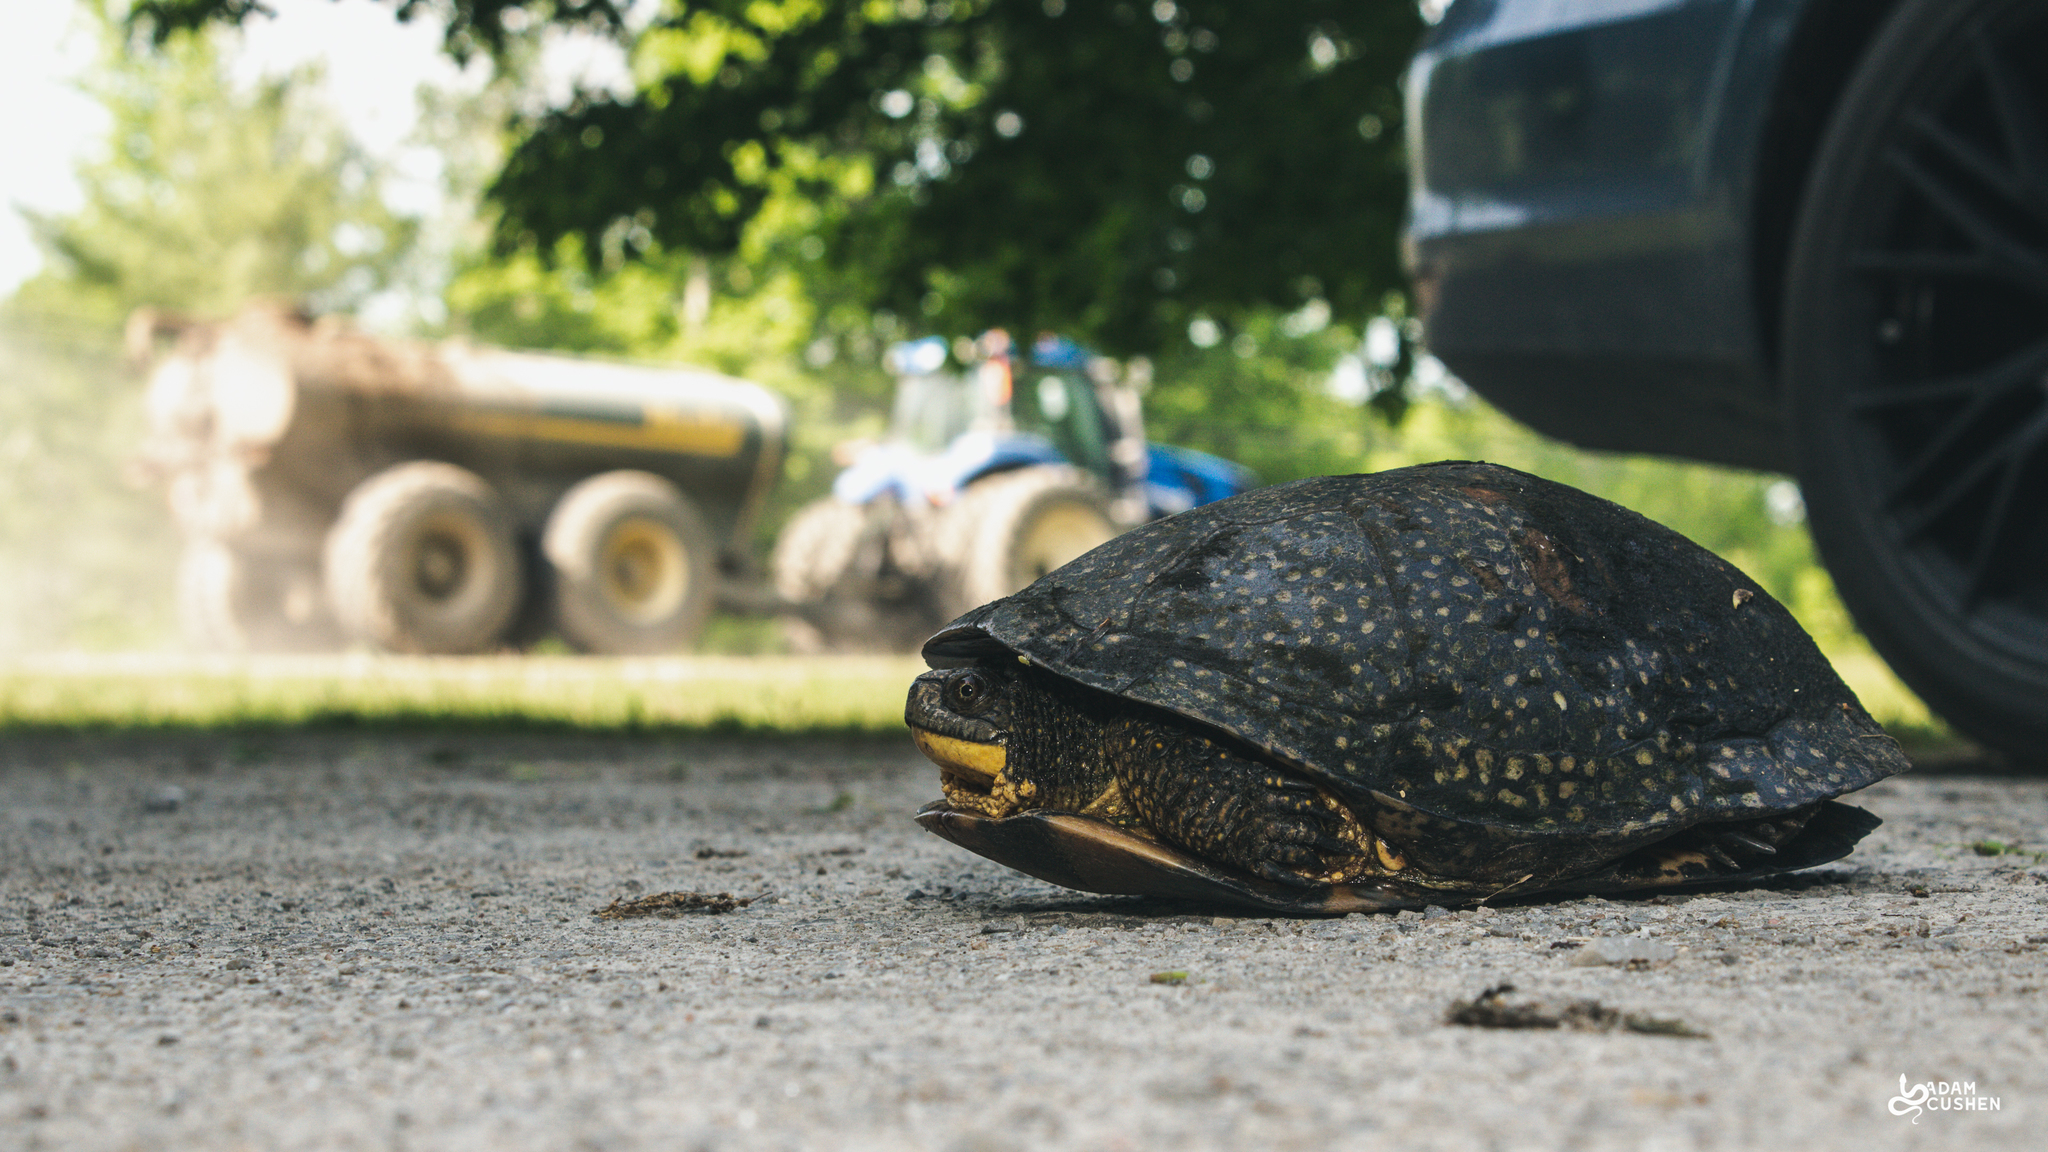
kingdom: Animalia
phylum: Chordata
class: Testudines
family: Emydidae
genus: Emys
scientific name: Emys blandingii
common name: Blanding's turtle
